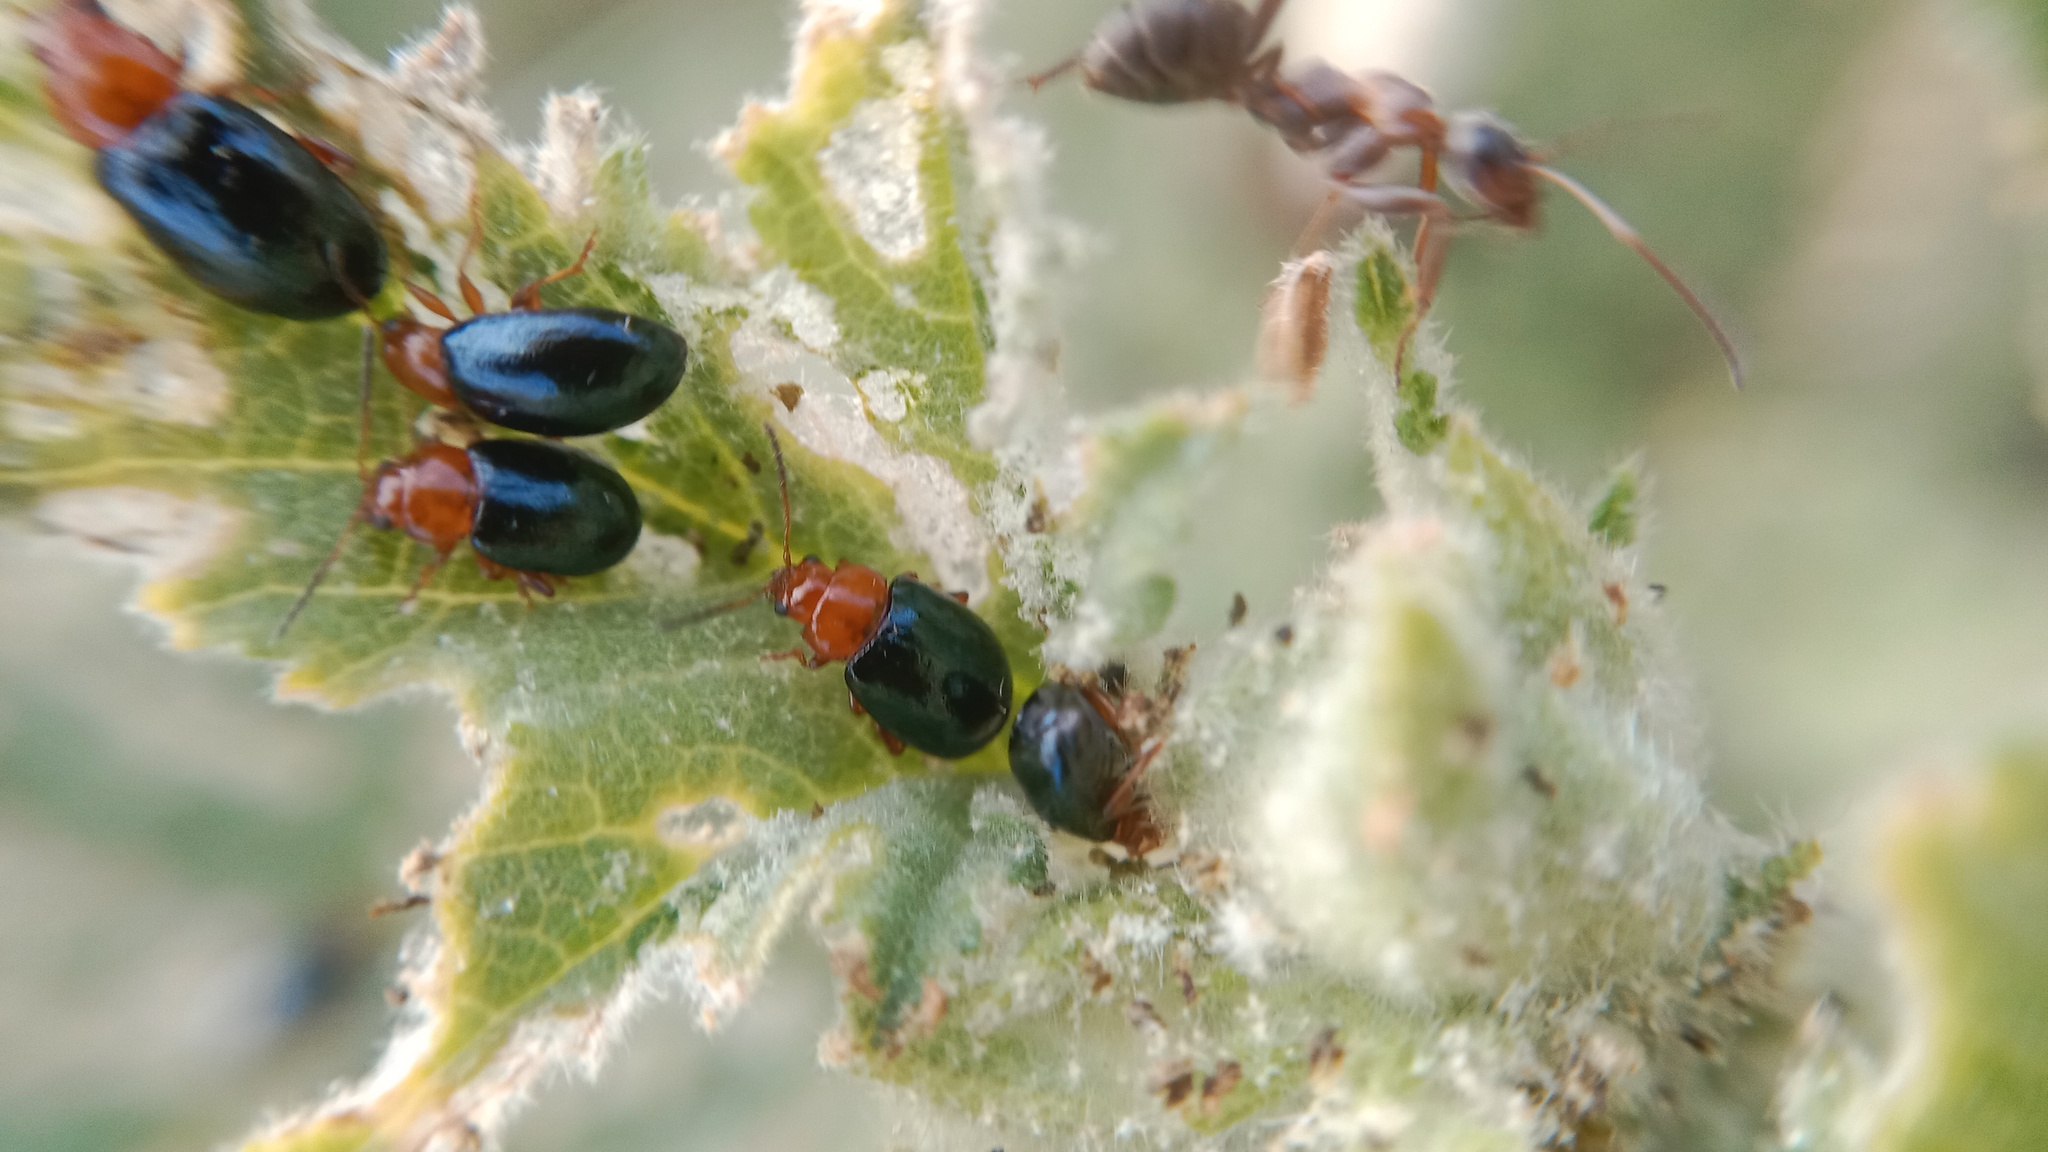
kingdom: Animalia
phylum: Arthropoda
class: Insecta
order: Coleoptera
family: Chrysomelidae
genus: Podagrica
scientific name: Podagrica fuscicornis
